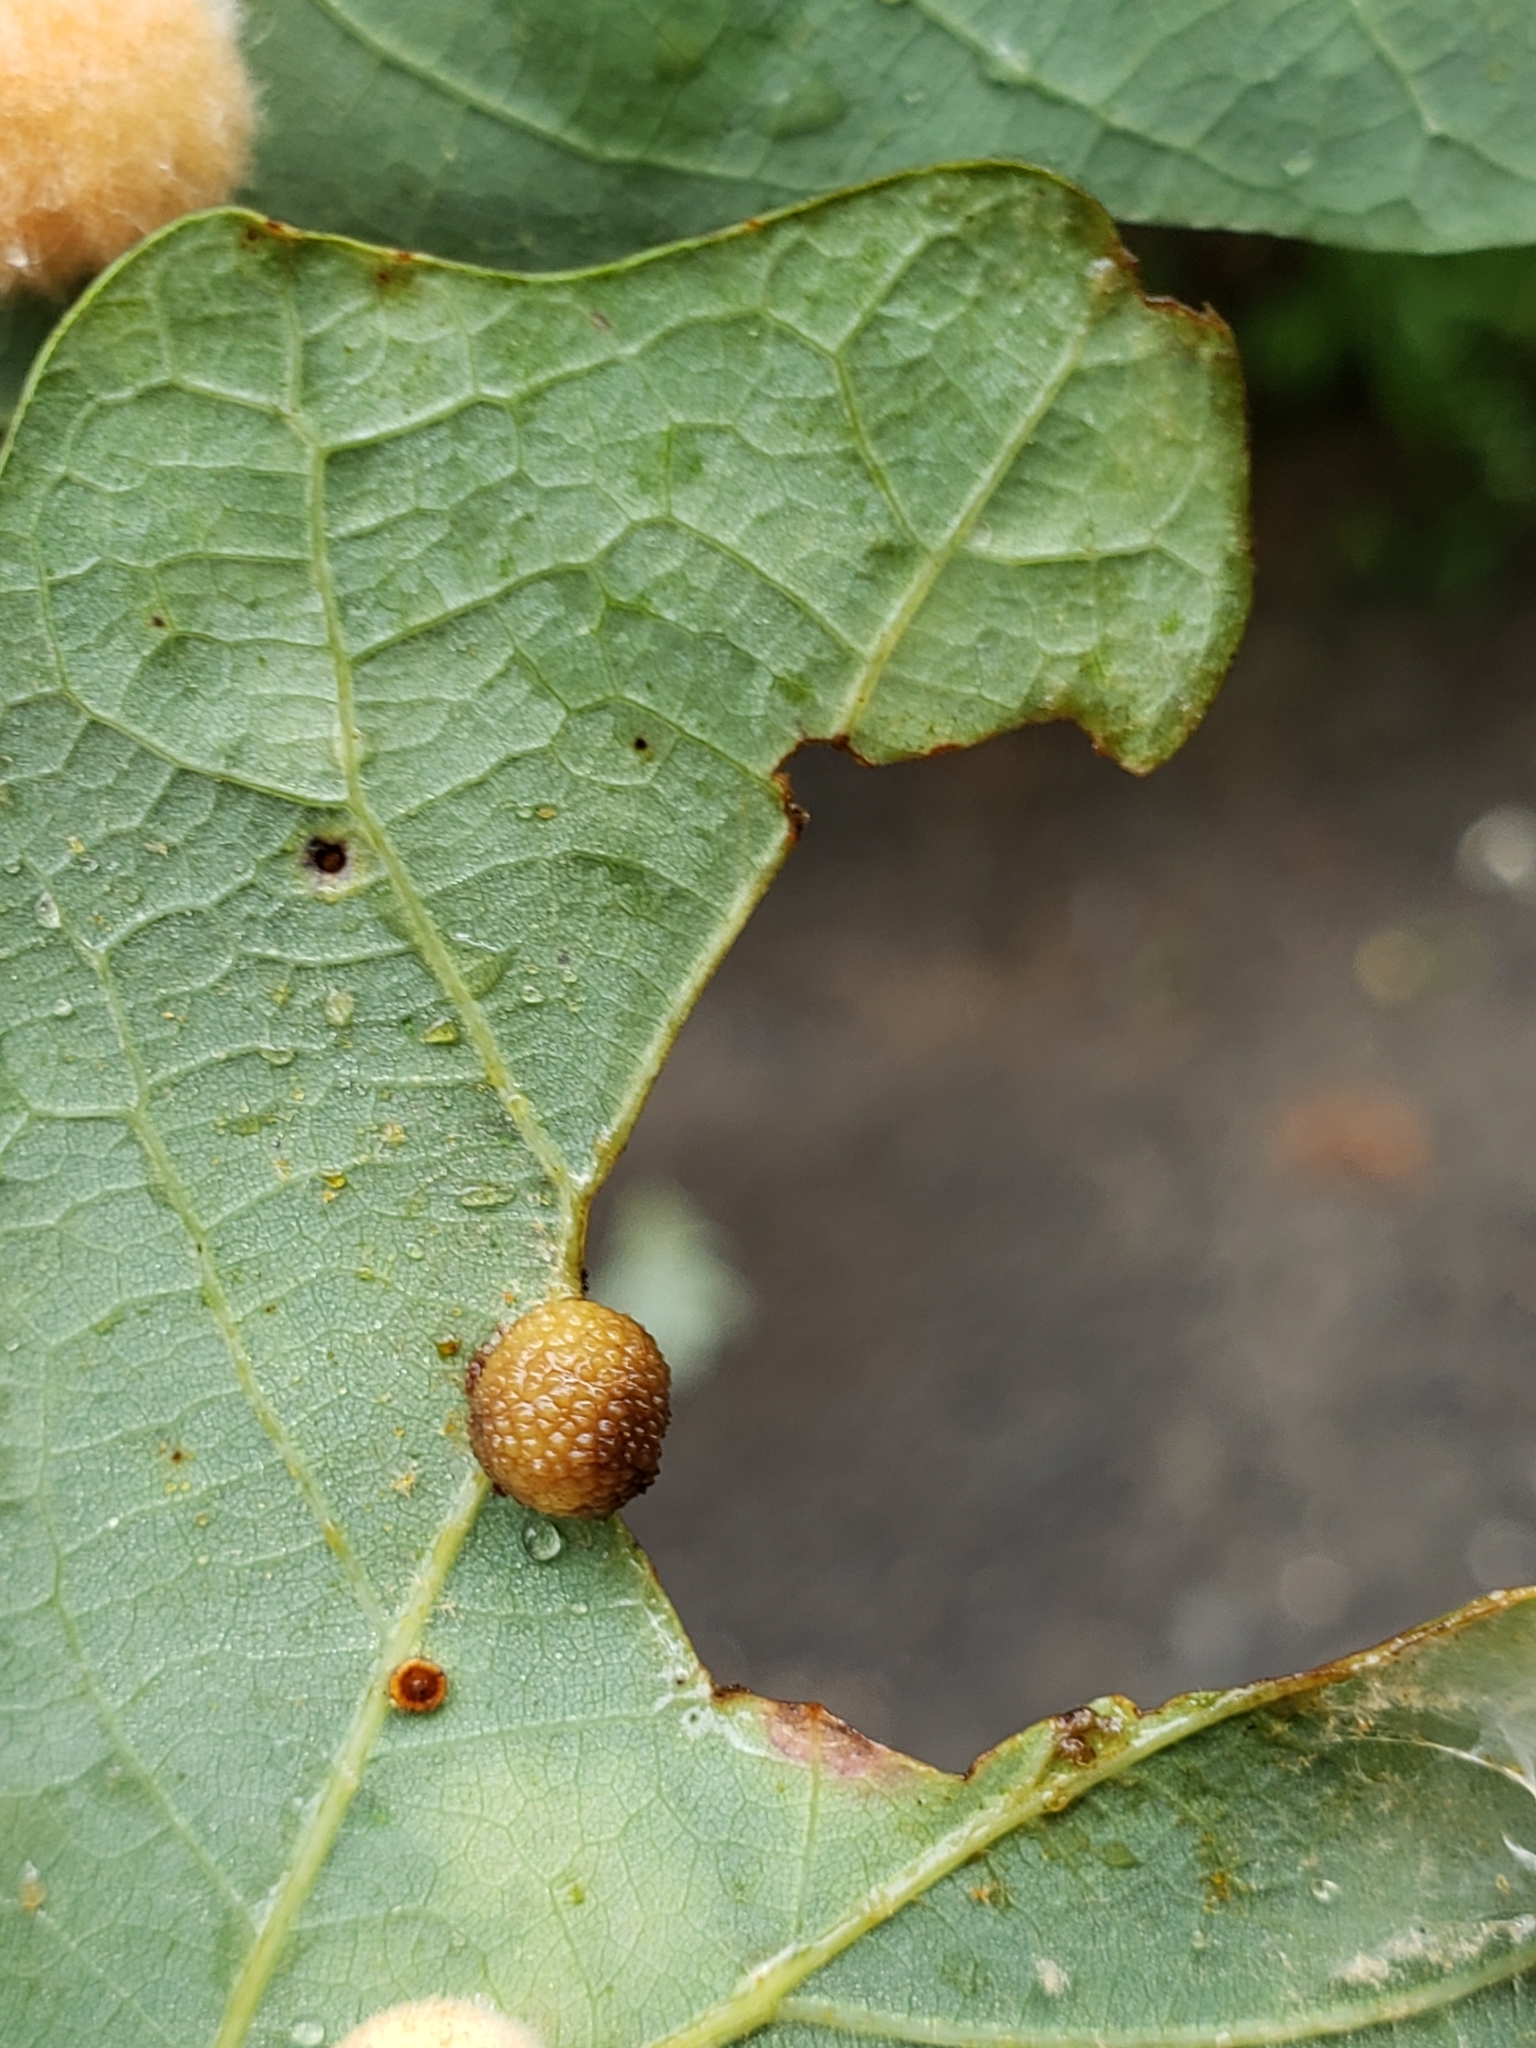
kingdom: Animalia
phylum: Arthropoda
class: Insecta
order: Hymenoptera
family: Cynipidae
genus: Acraspis
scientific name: Acraspis
